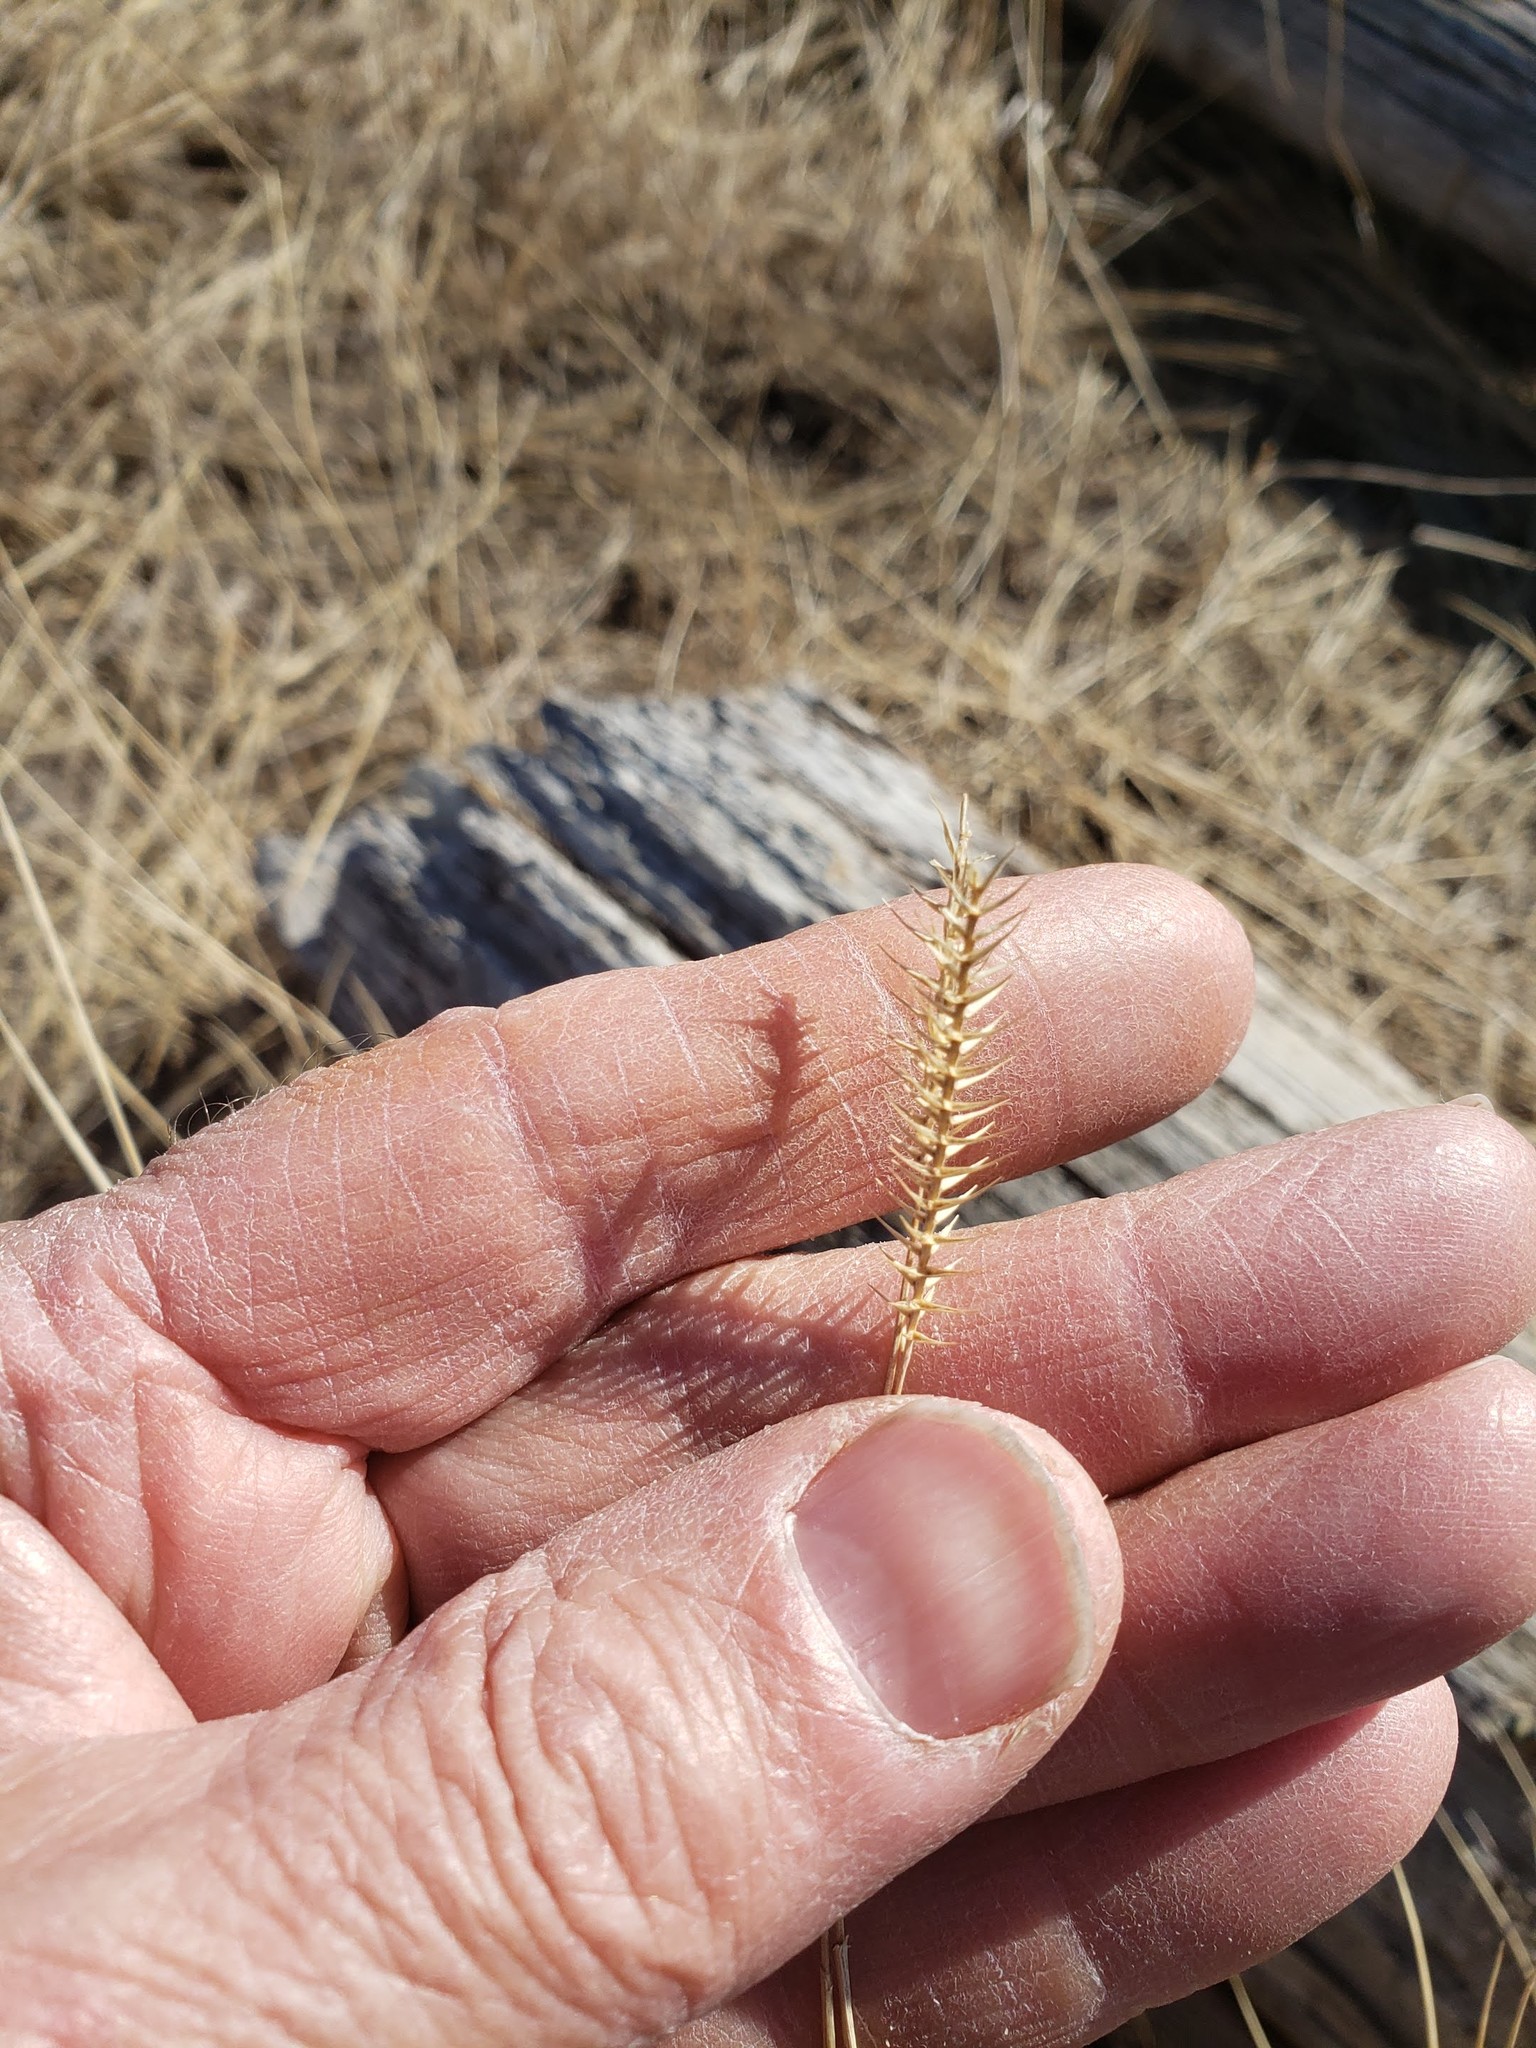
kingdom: Plantae
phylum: Tracheophyta
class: Liliopsida
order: Poales
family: Poaceae
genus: Agropyron
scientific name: Agropyron cristatum
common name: Crested wheatgrass
